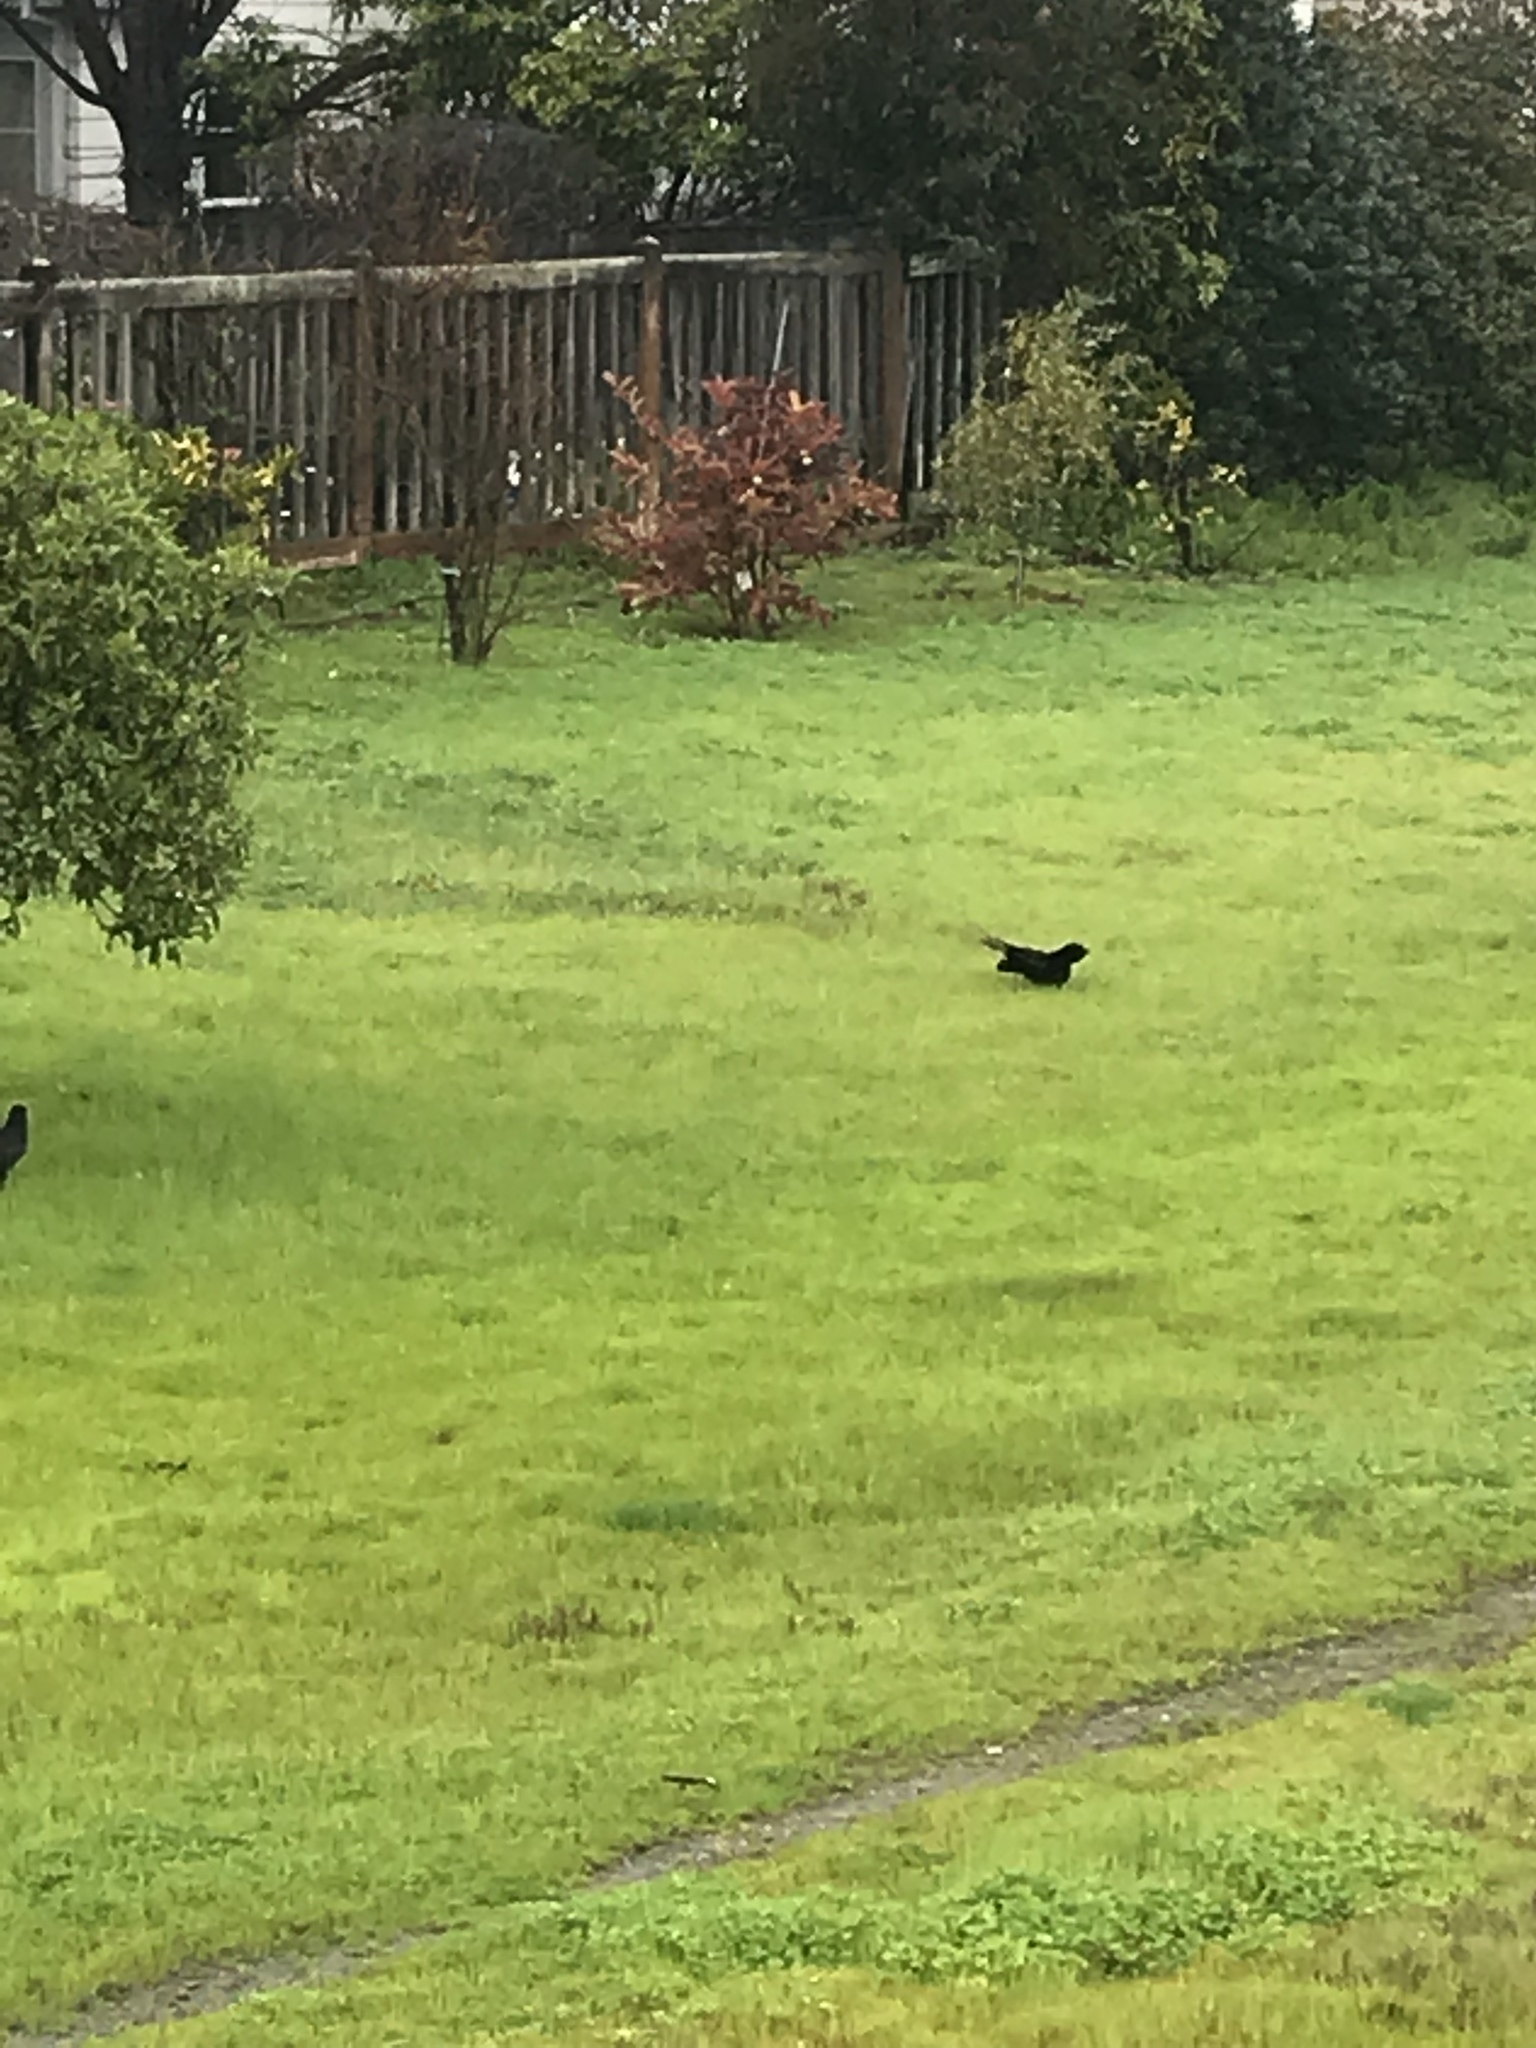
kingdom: Animalia
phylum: Chordata
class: Aves
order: Passeriformes
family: Corvidae
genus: Corvus
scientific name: Corvus brachyrhynchos
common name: American crow
